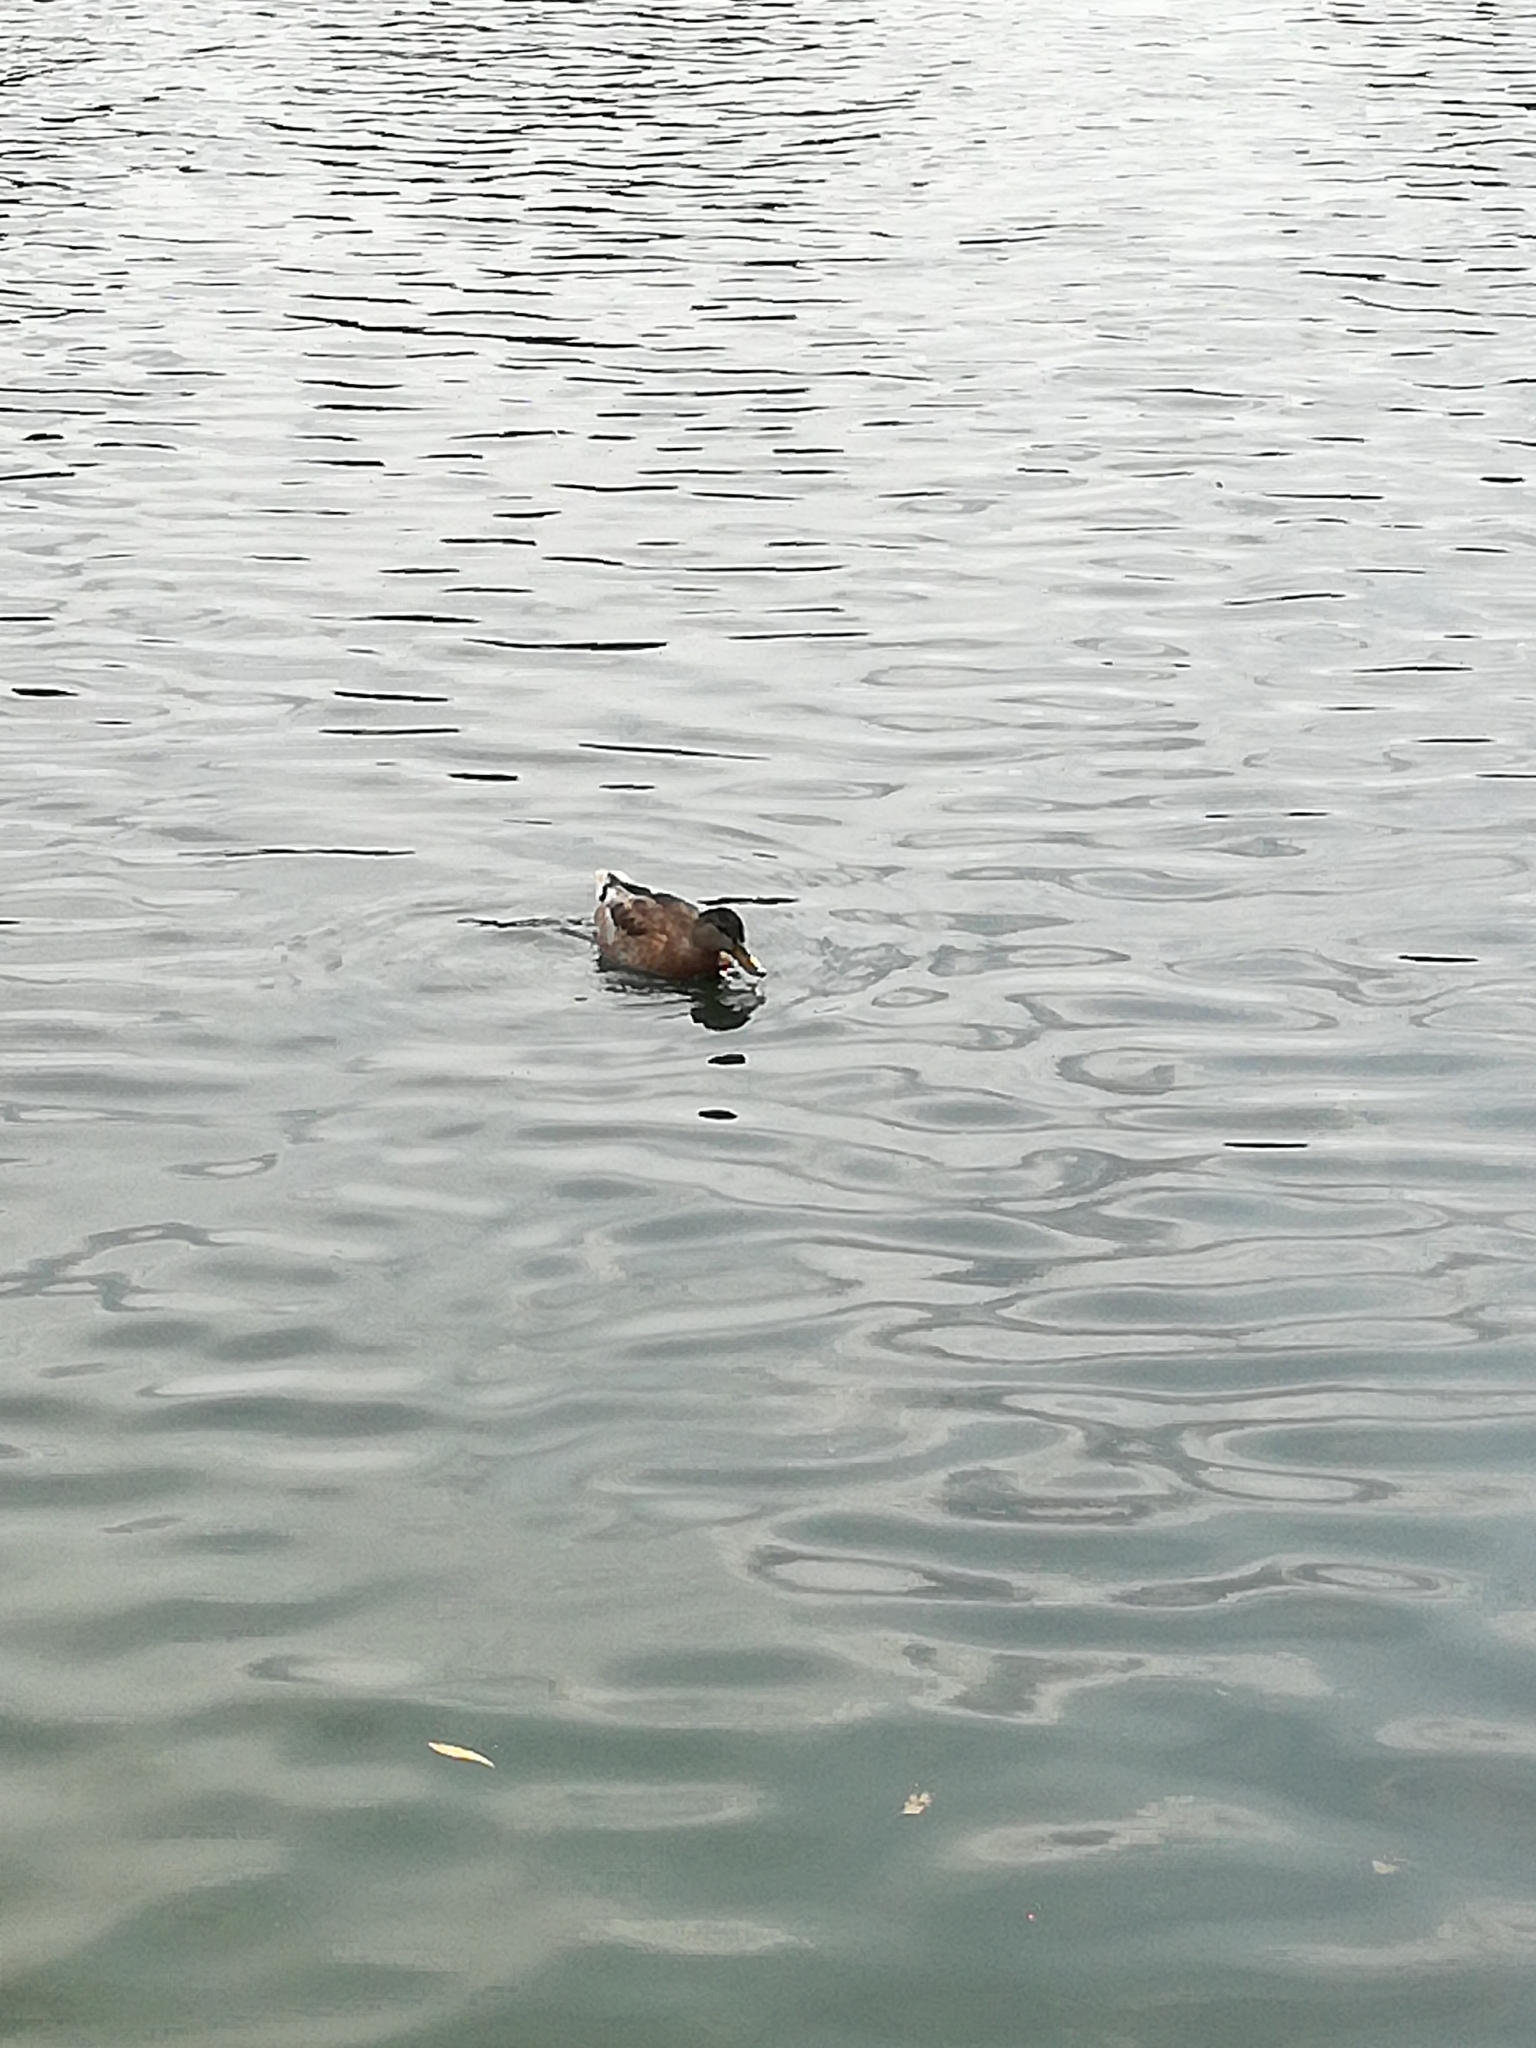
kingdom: Animalia
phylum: Chordata
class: Aves
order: Anseriformes
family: Anatidae
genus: Anas
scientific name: Anas platyrhynchos
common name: Mallard
